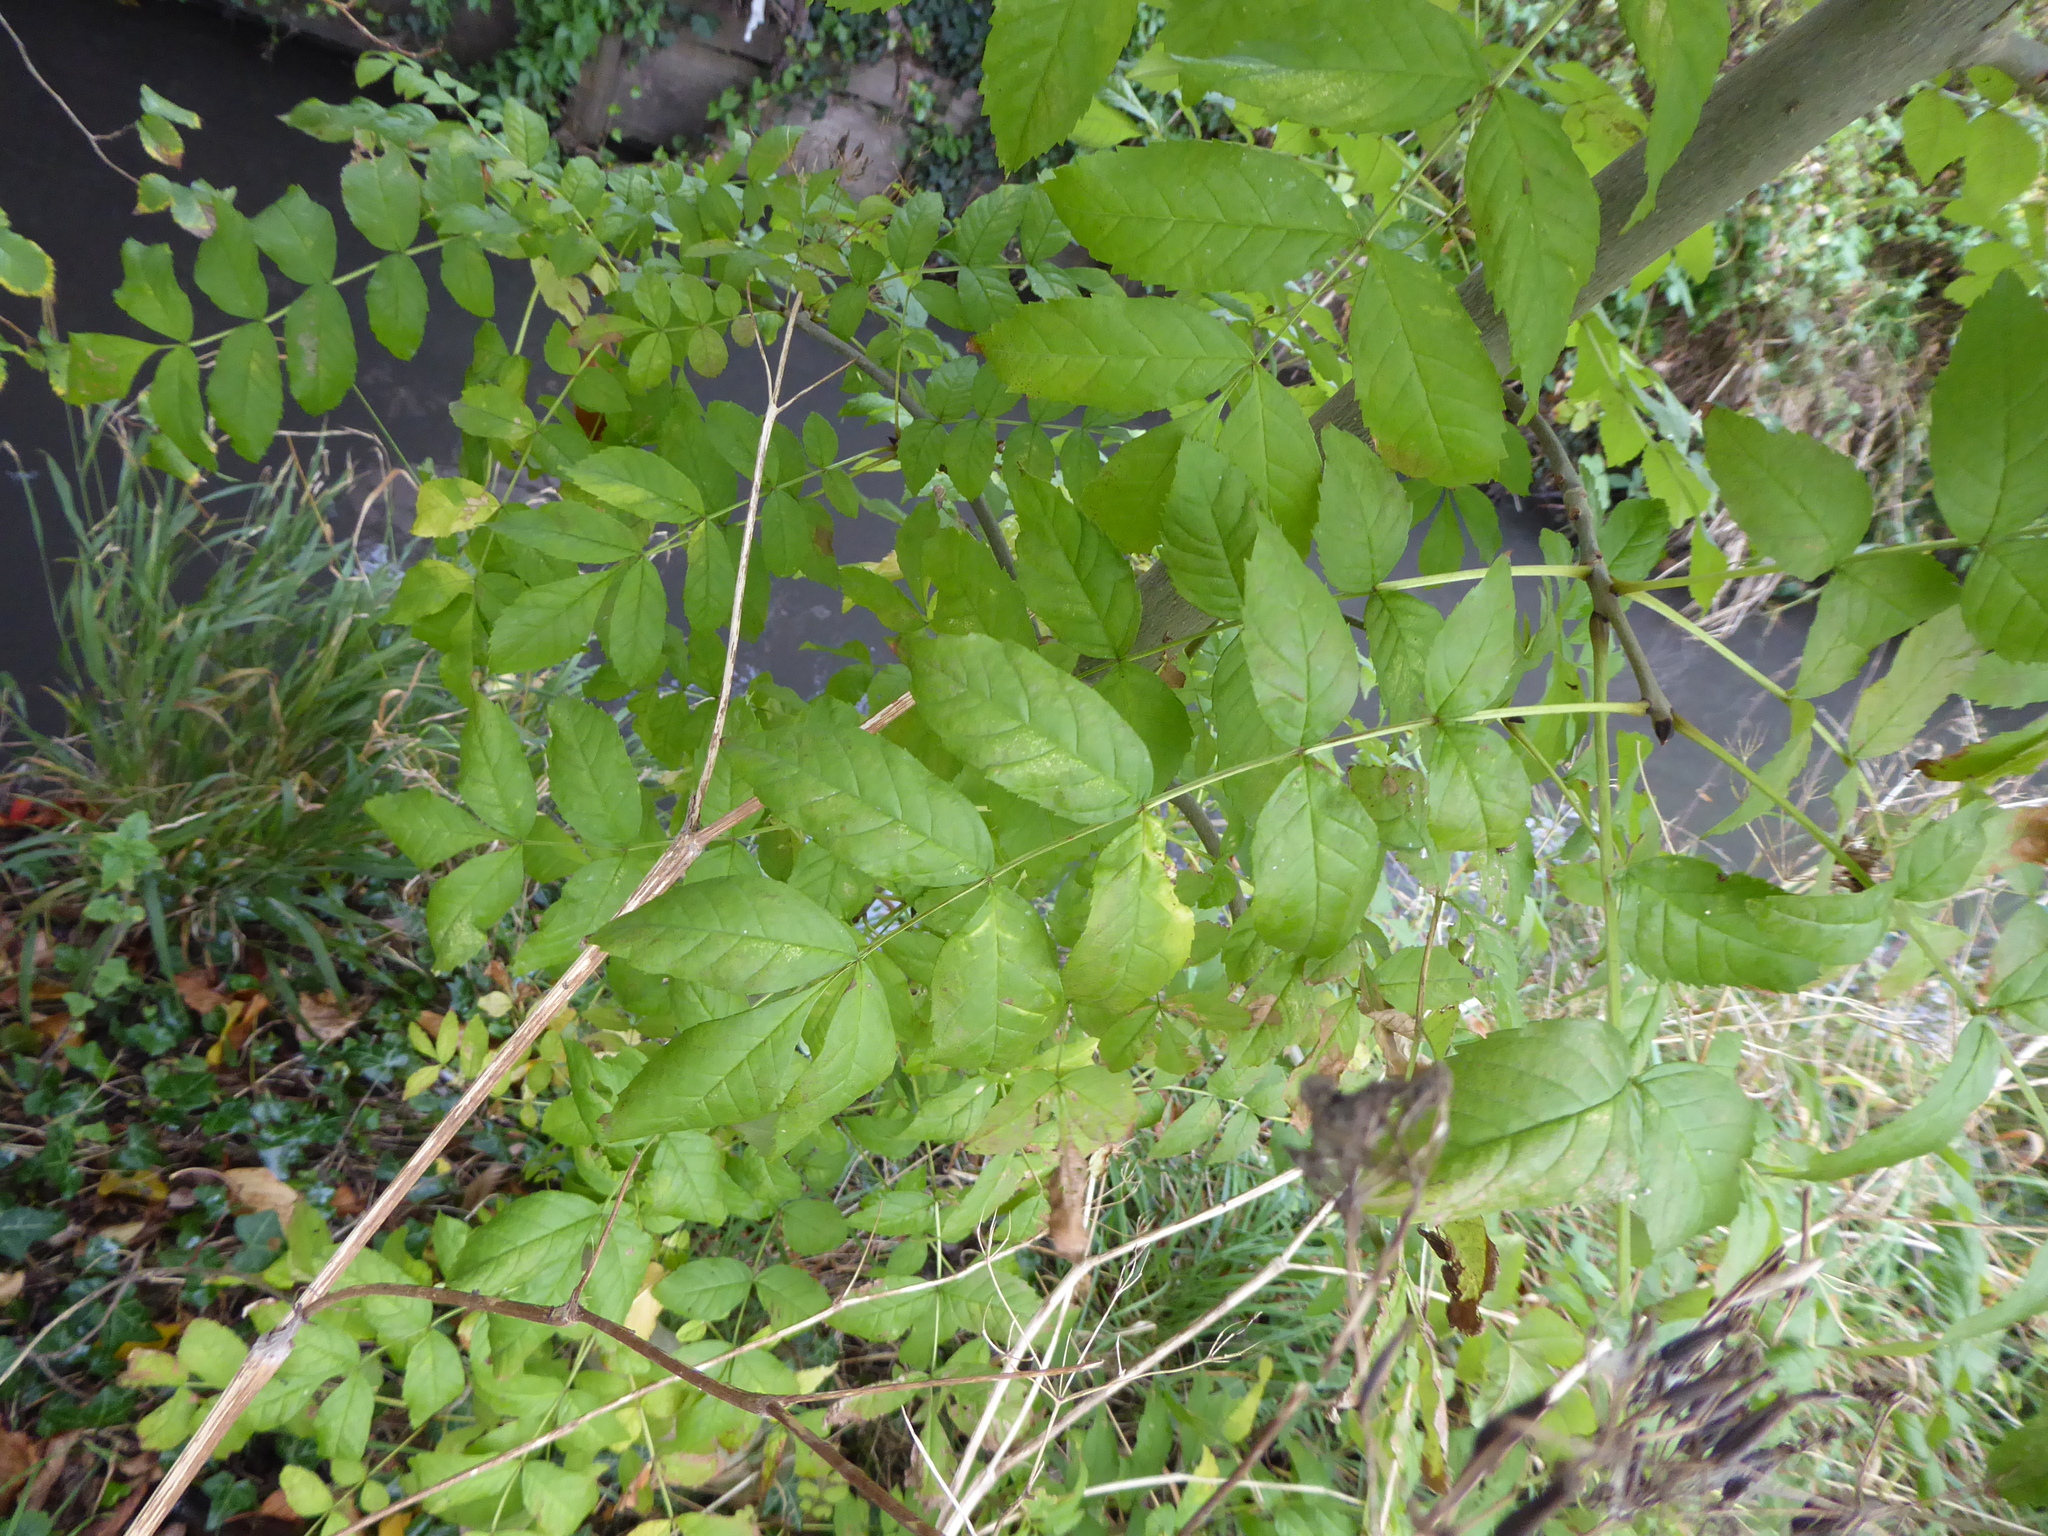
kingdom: Plantae
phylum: Tracheophyta
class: Magnoliopsida
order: Lamiales
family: Oleaceae
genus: Fraxinus
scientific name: Fraxinus excelsior
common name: European ash
